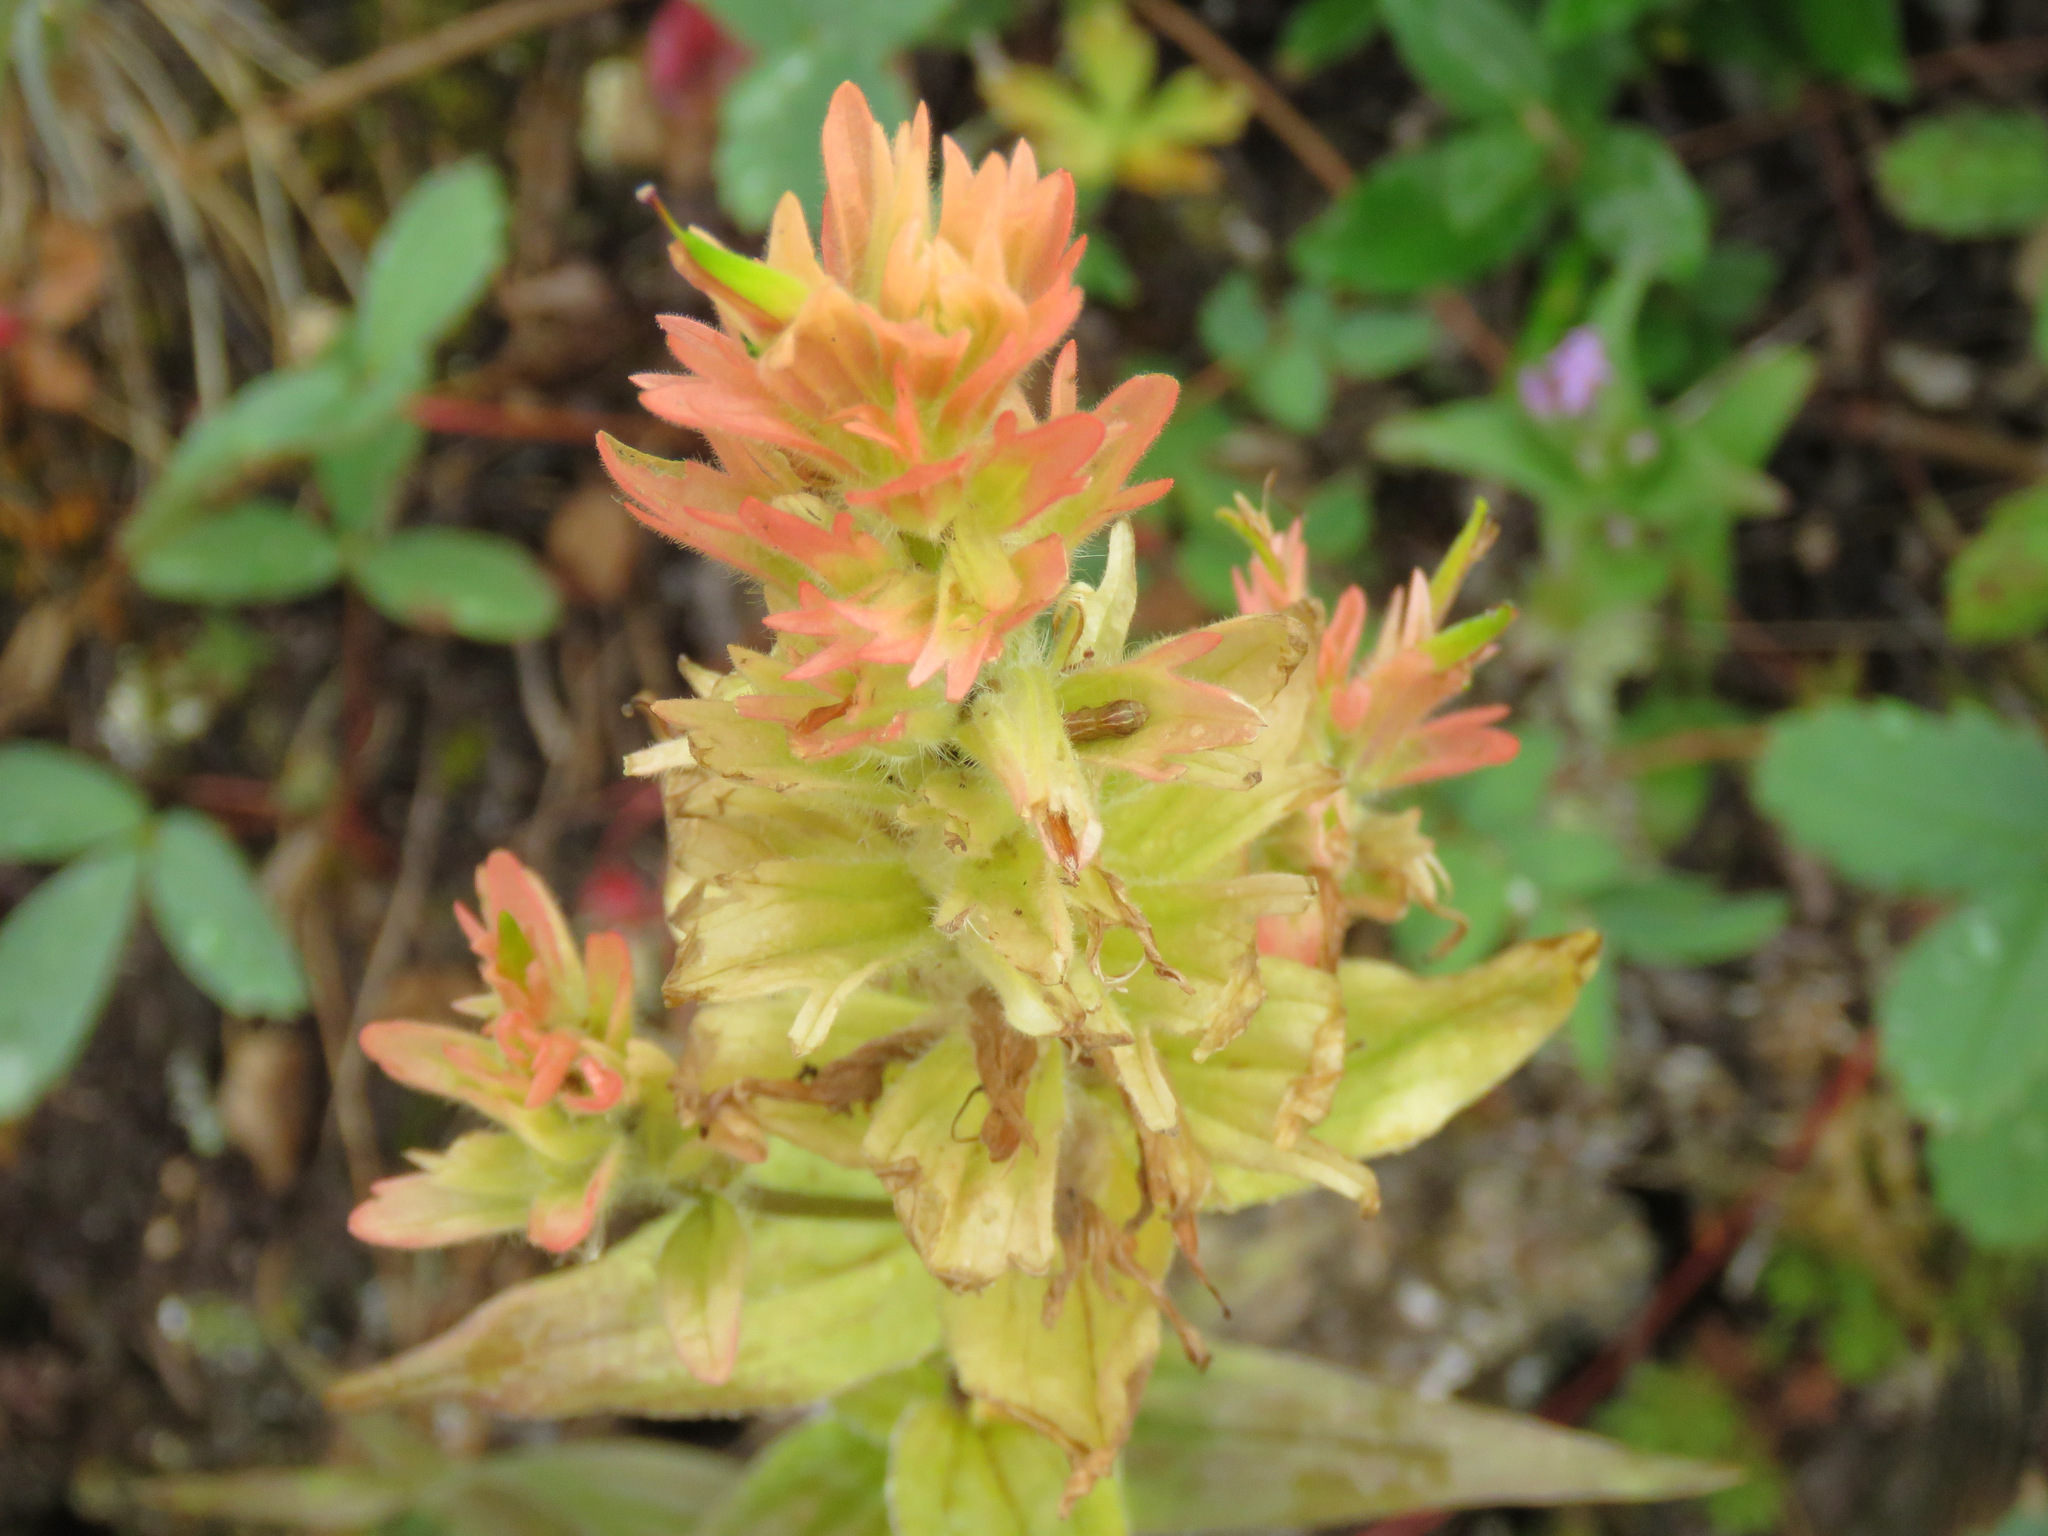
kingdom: Plantae
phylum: Tracheophyta
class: Magnoliopsida
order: Lamiales
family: Orobanchaceae
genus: Castilleja
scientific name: Castilleja miniata
